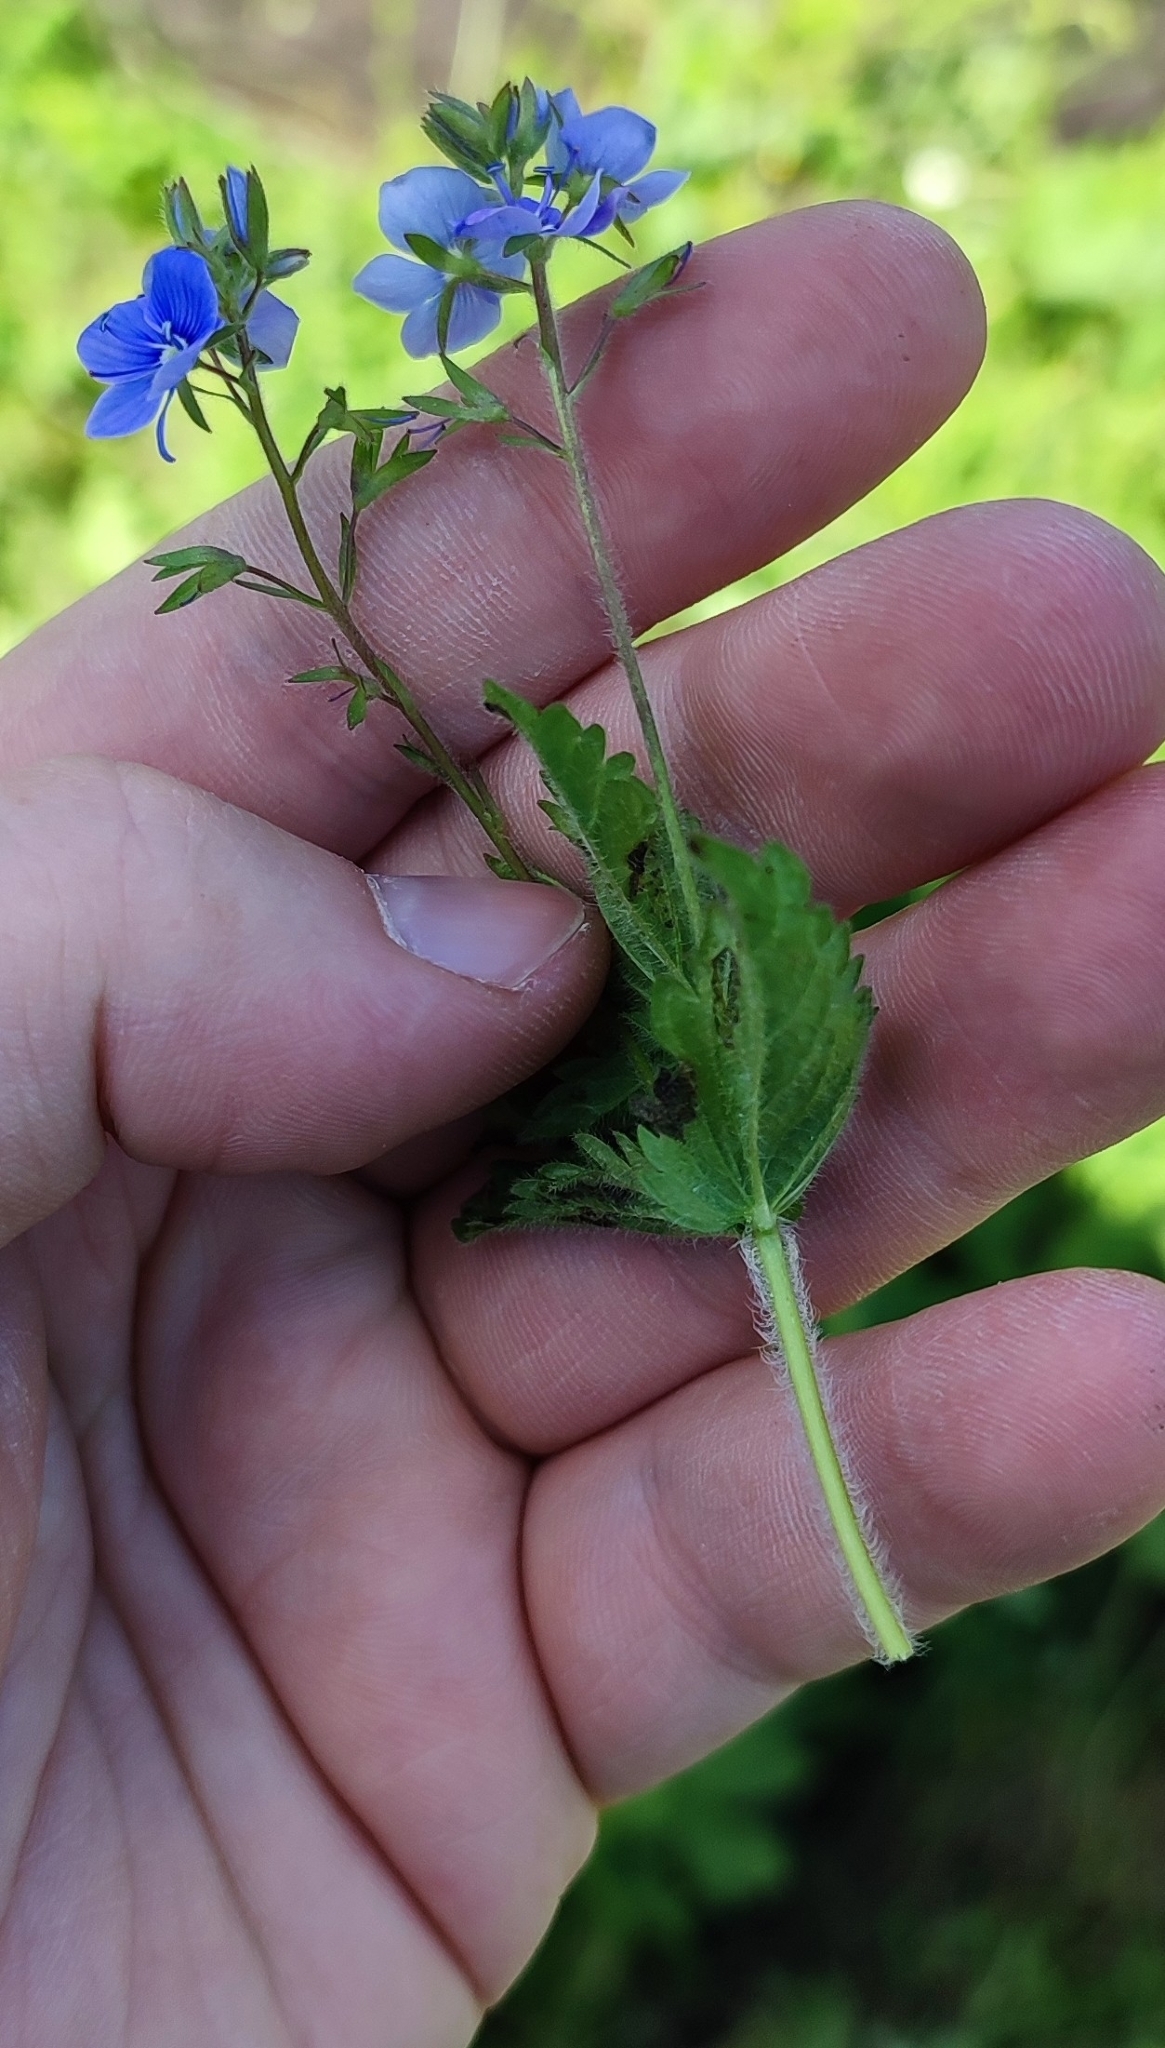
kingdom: Plantae
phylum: Tracheophyta
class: Magnoliopsida
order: Lamiales
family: Plantaginaceae
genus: Veronica
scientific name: Veronica chamaedrys
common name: Germander speedwell
